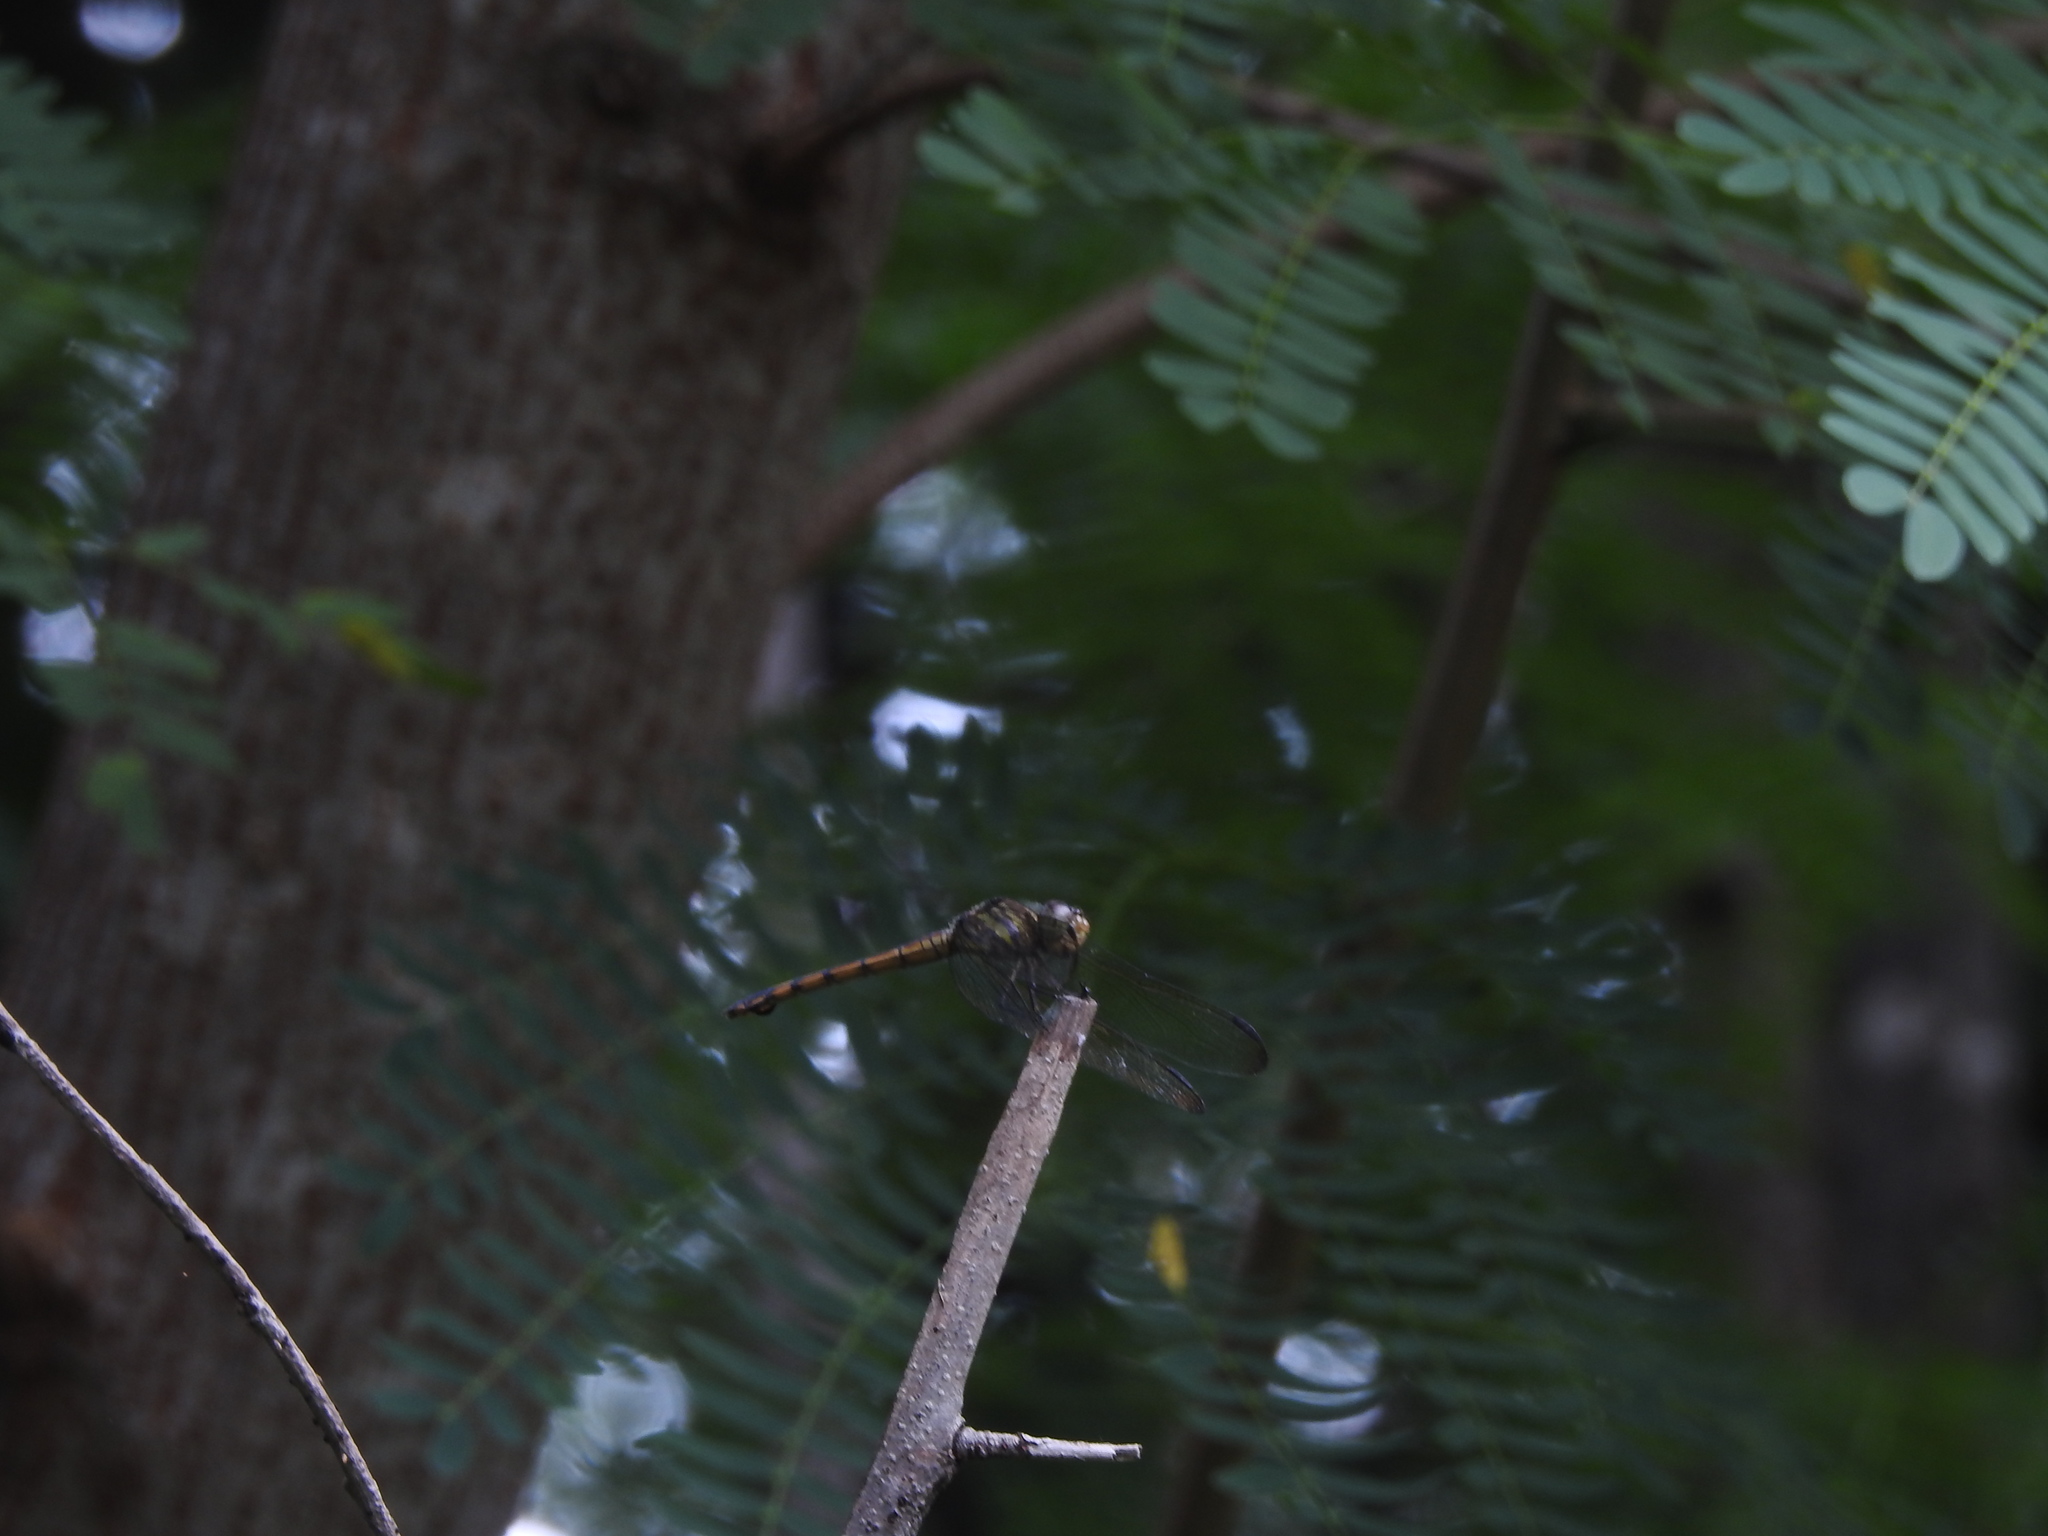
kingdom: Animalia
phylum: Arthropoda
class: Insecta
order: Odonata
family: Libellulidae
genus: Potamarcha
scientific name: Potamarcha congener
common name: Blue chaser
